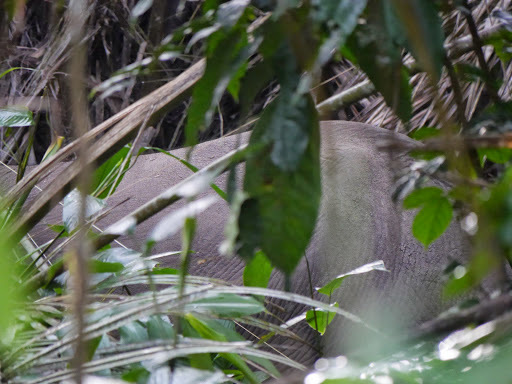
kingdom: Animalia
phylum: Chordata
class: Mammalia
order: Proboscidea
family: Elephantidae
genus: Loxodonta
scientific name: Loxodonta cyclotis
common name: African forest elephant
